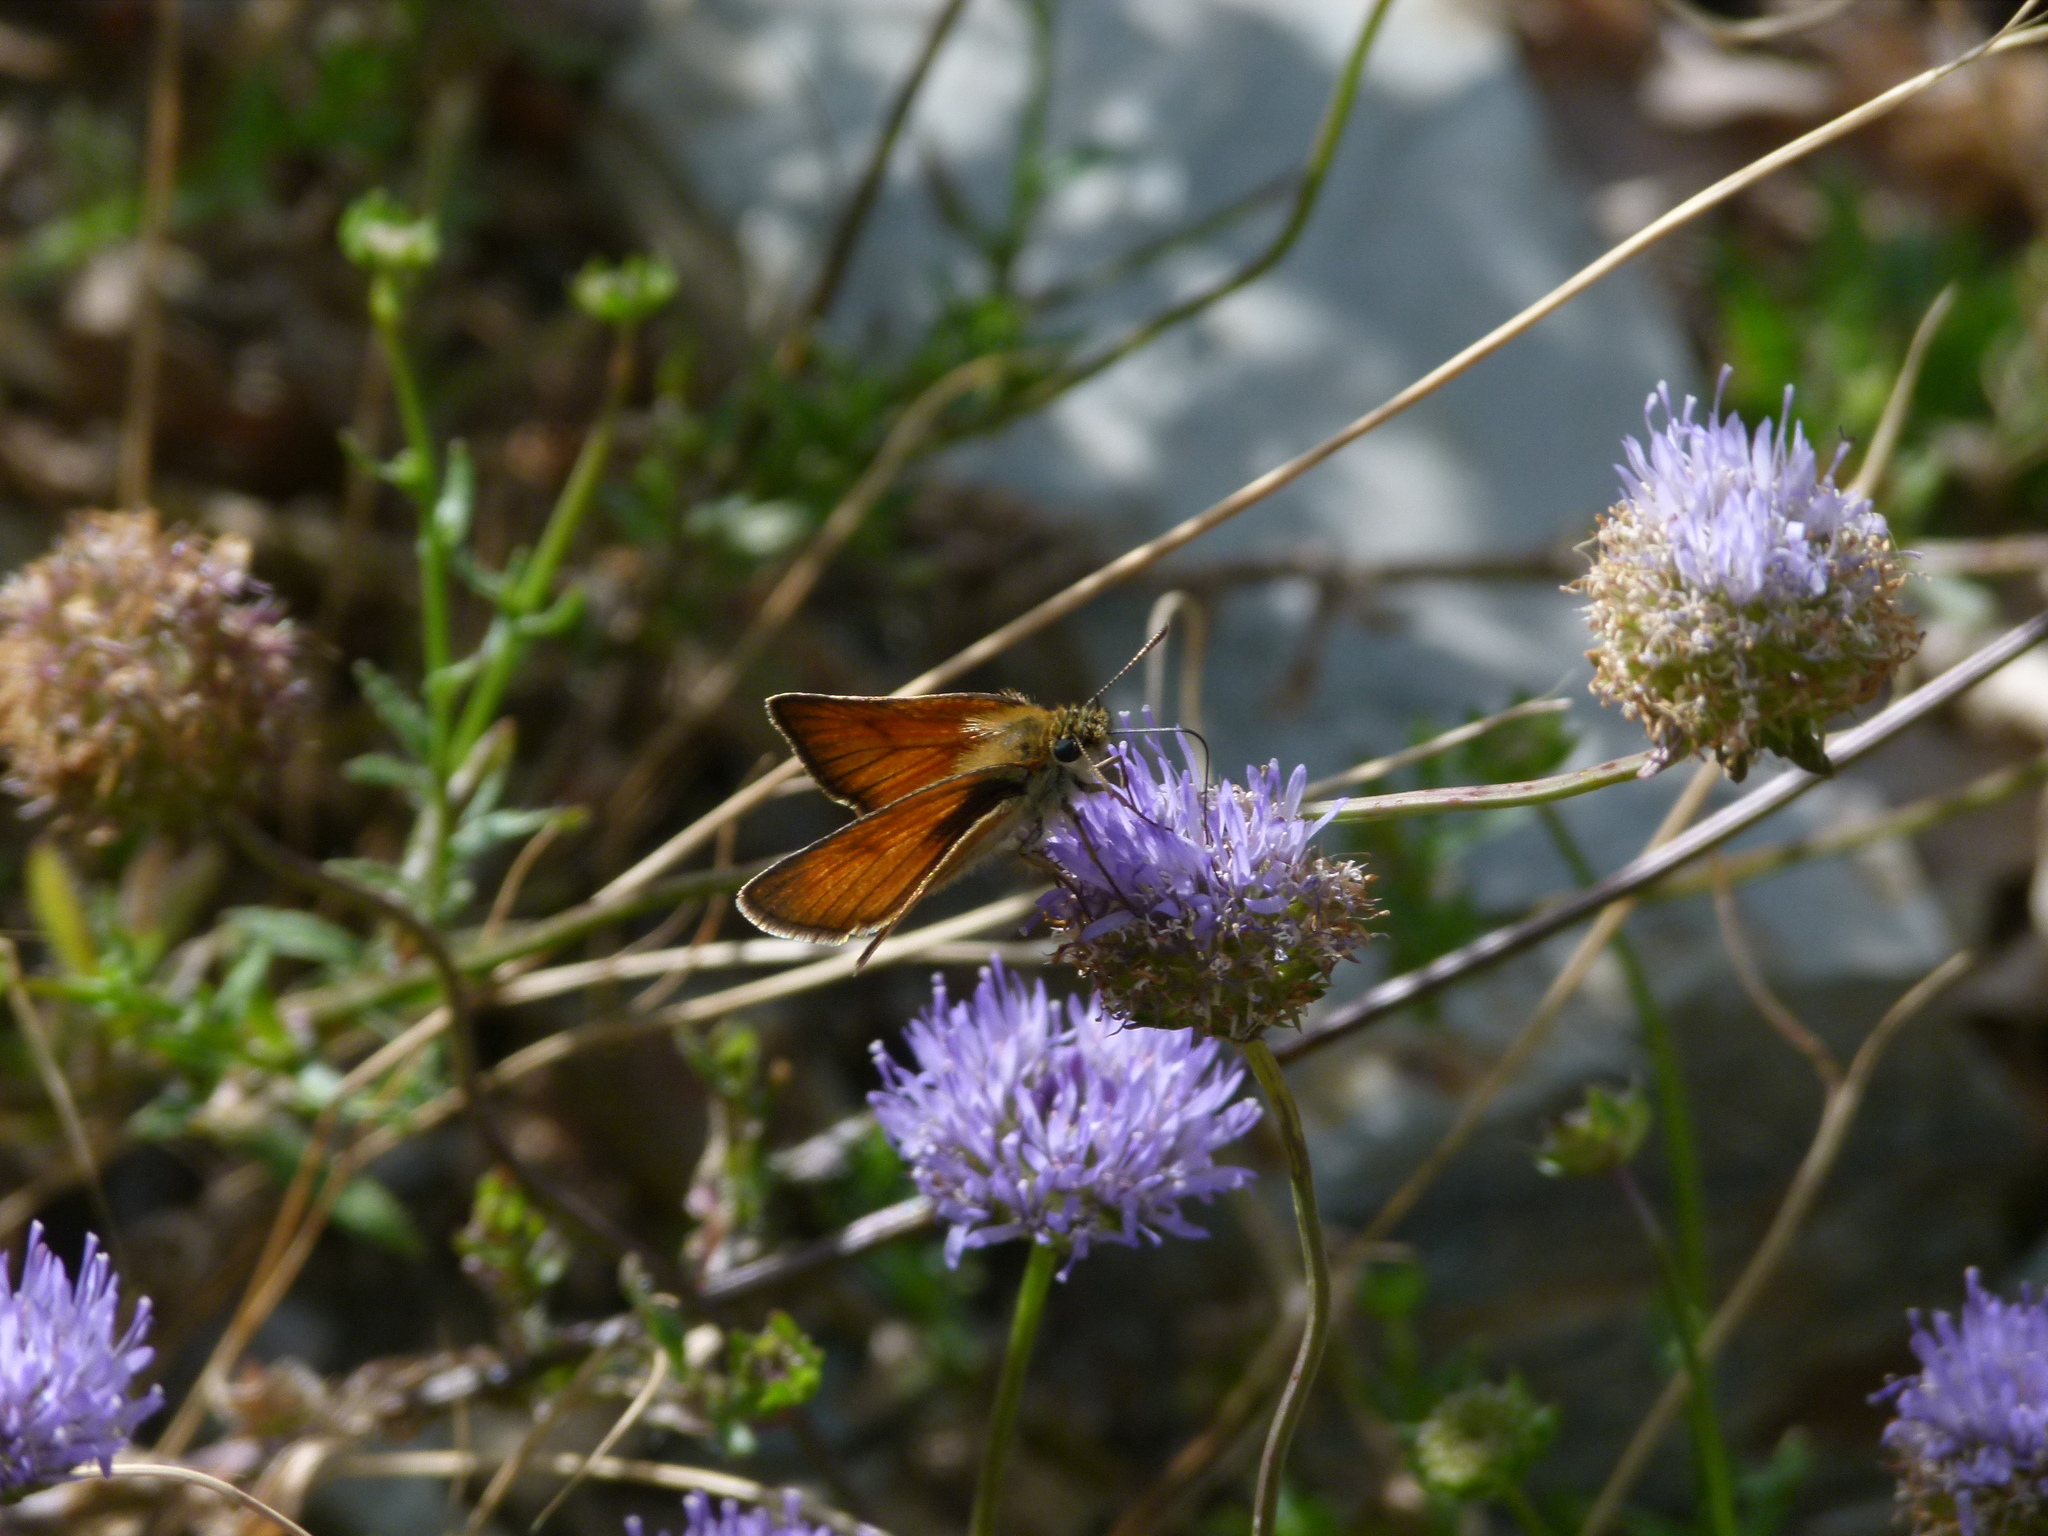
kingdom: Animalia
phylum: Arthropoda
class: Insecta
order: Lepidoptera
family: Hesperiidae
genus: Thymelicus
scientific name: Thymelicus sylvestris
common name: Small skipper
